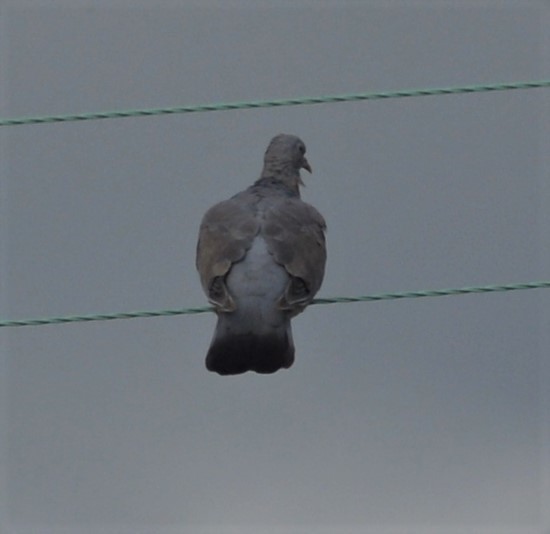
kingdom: Animalia
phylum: Chordata
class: Aves
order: Columbiformes
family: Columbidae
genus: Columba
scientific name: Columba palumbus
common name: Common wood pigeon
